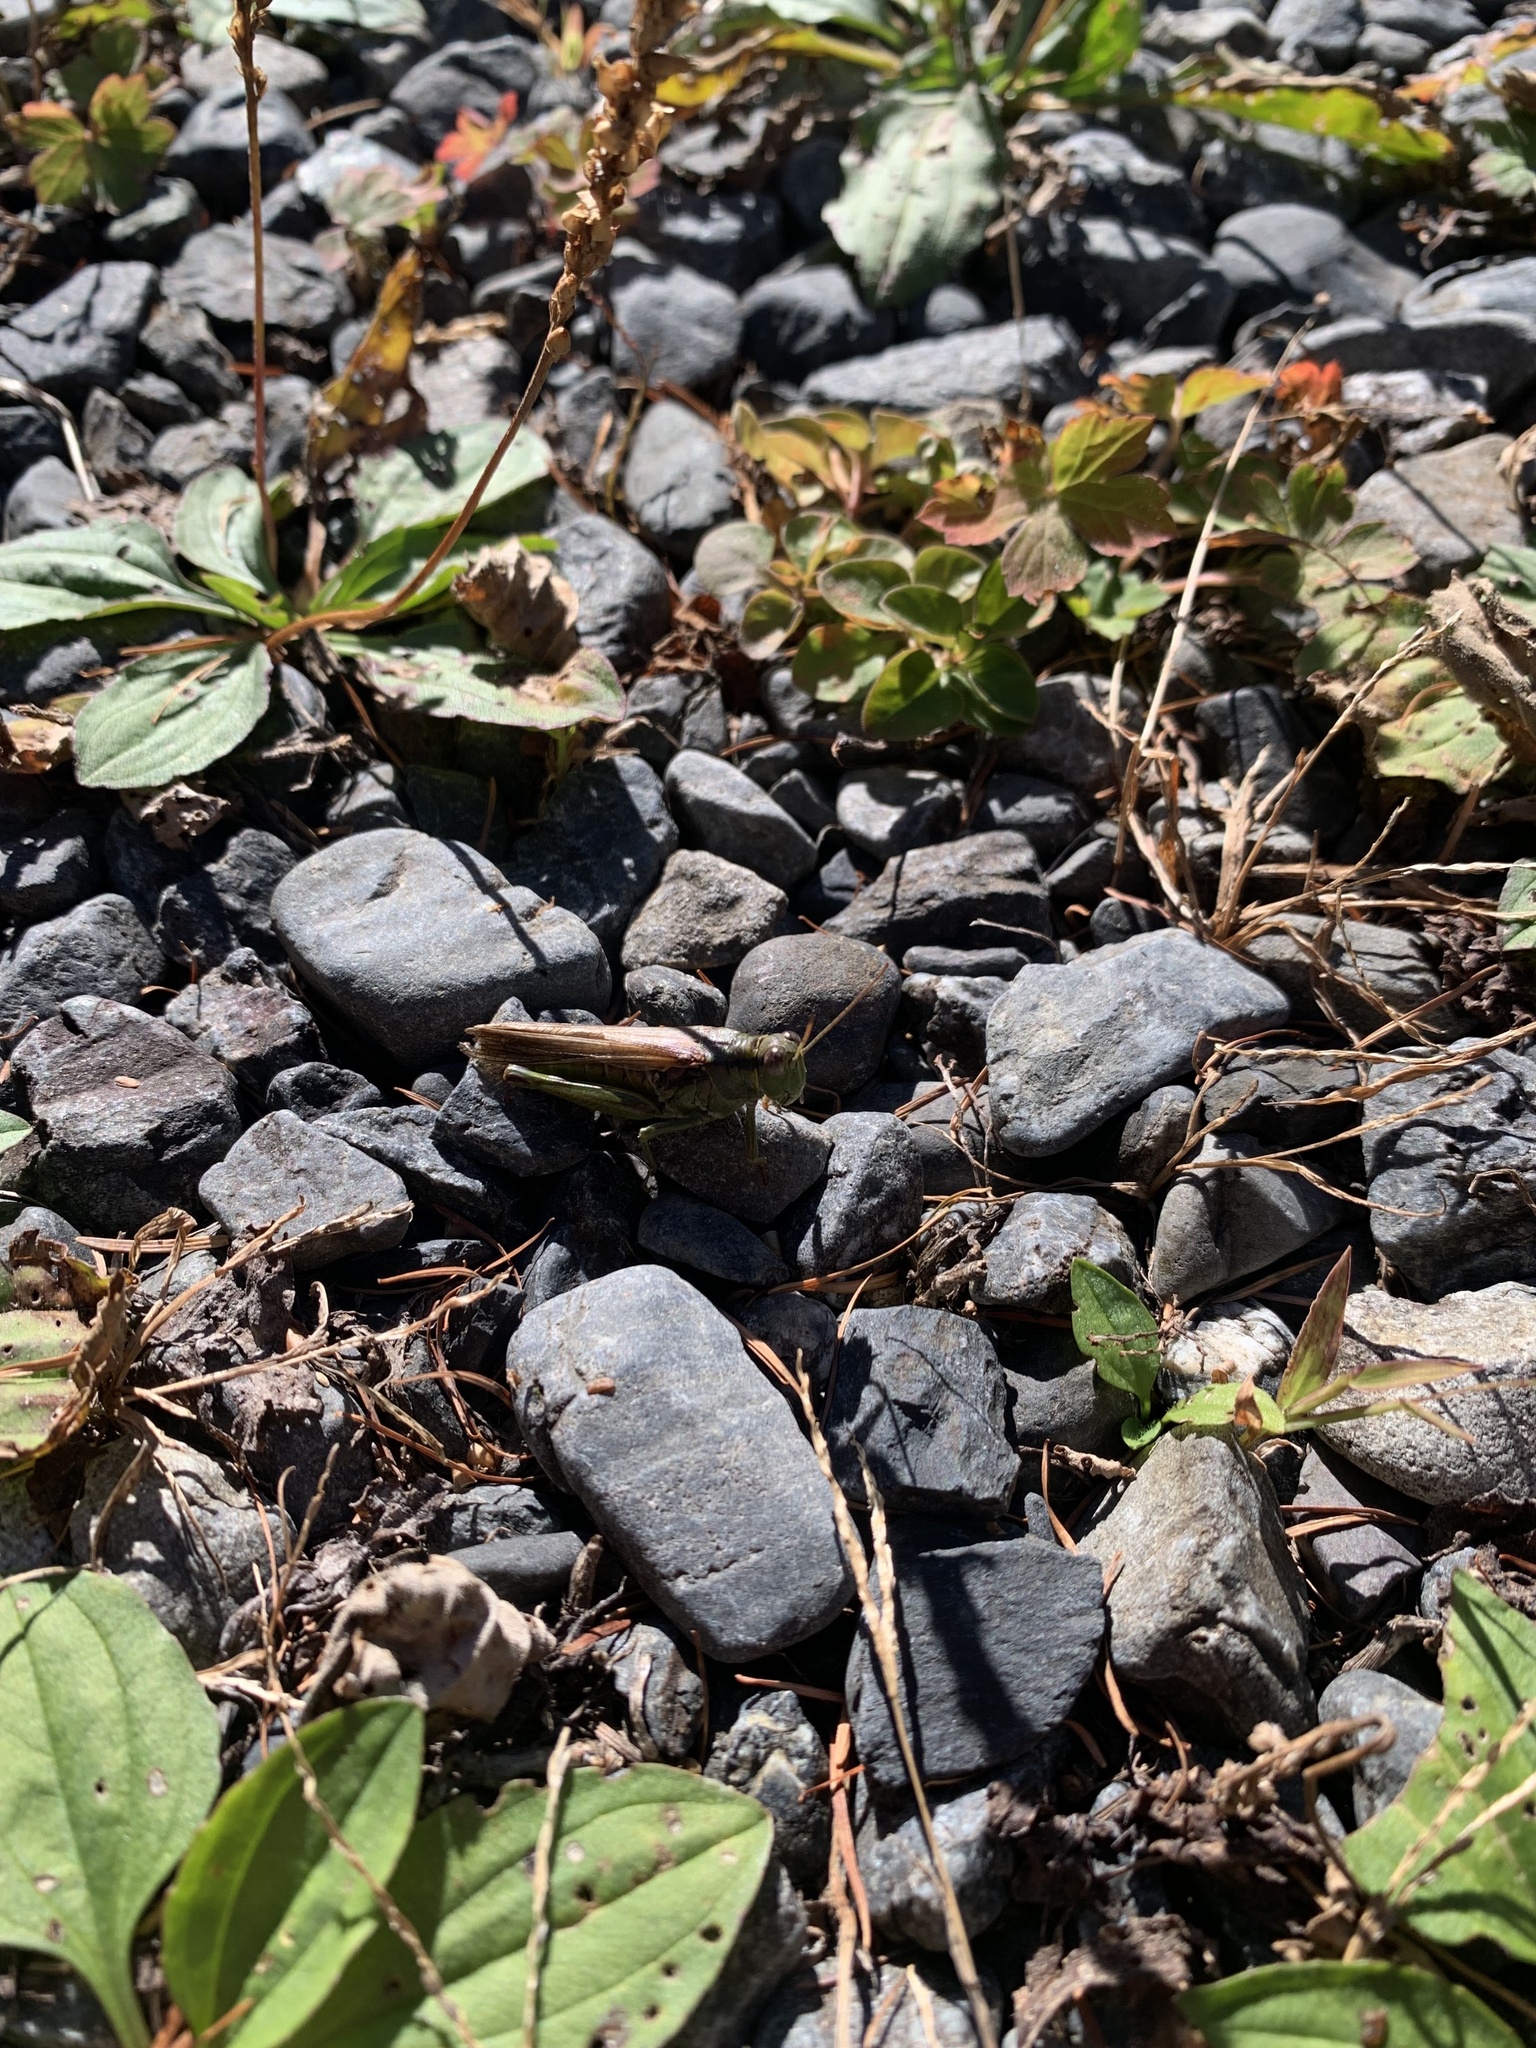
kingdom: Animalia
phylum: Arthropoda
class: Insecta
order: Orthoptera
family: Acrididae
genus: Confusacris
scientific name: Confusacris longipennis
